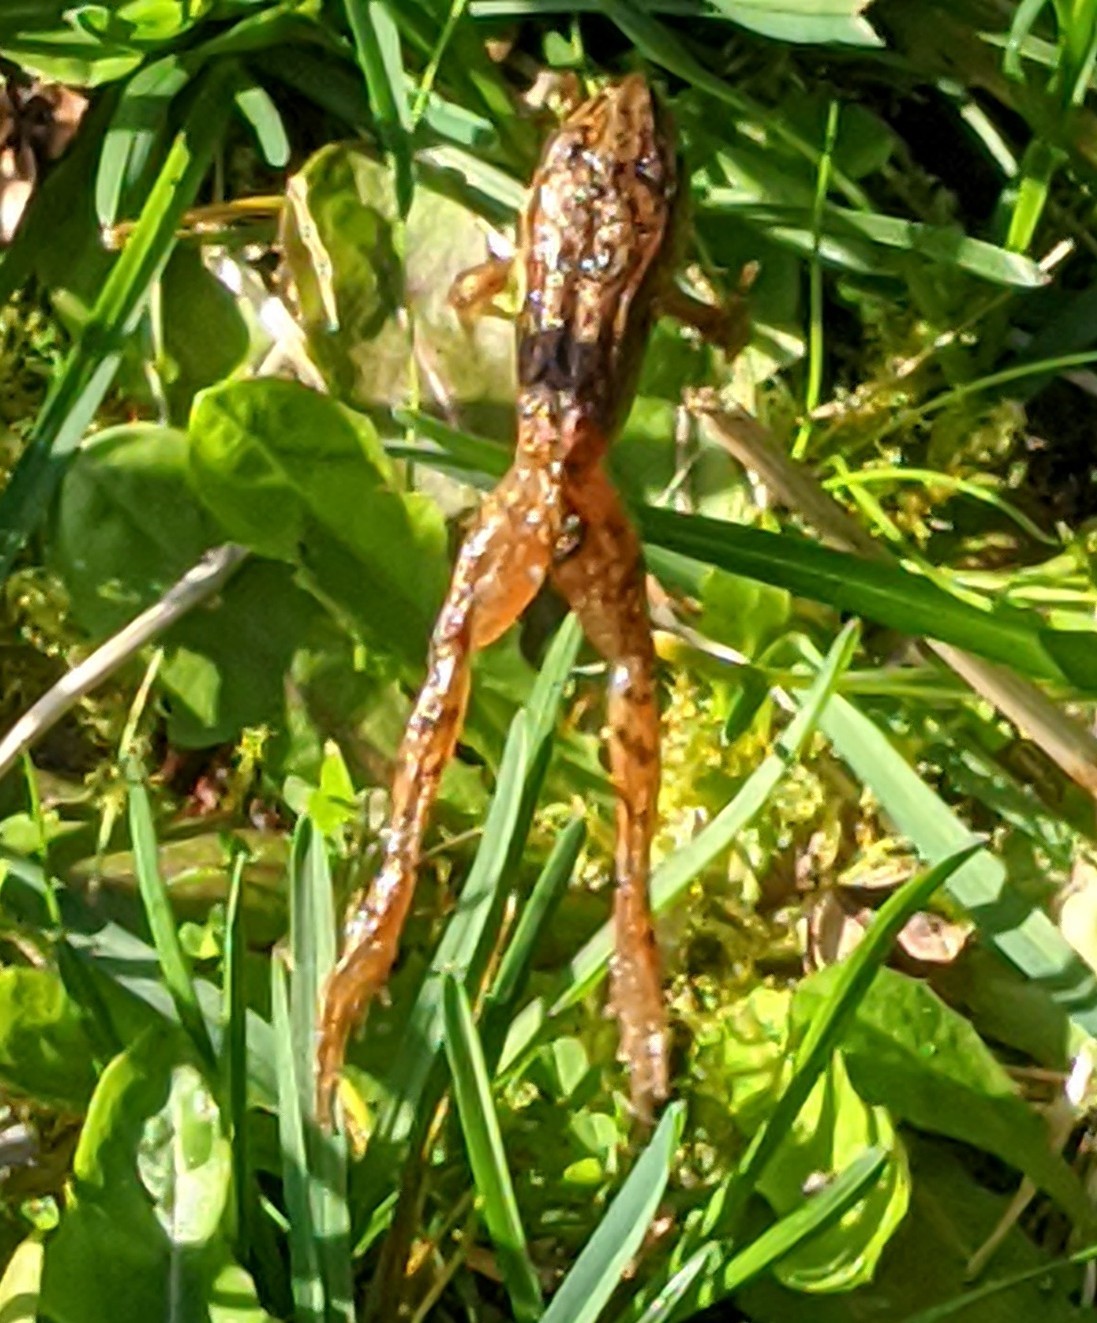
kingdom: Animalia
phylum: Chordata
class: Amphibia
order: Anura
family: Ranidae
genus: Rana
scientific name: Rana aurora
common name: Red-legged frog
